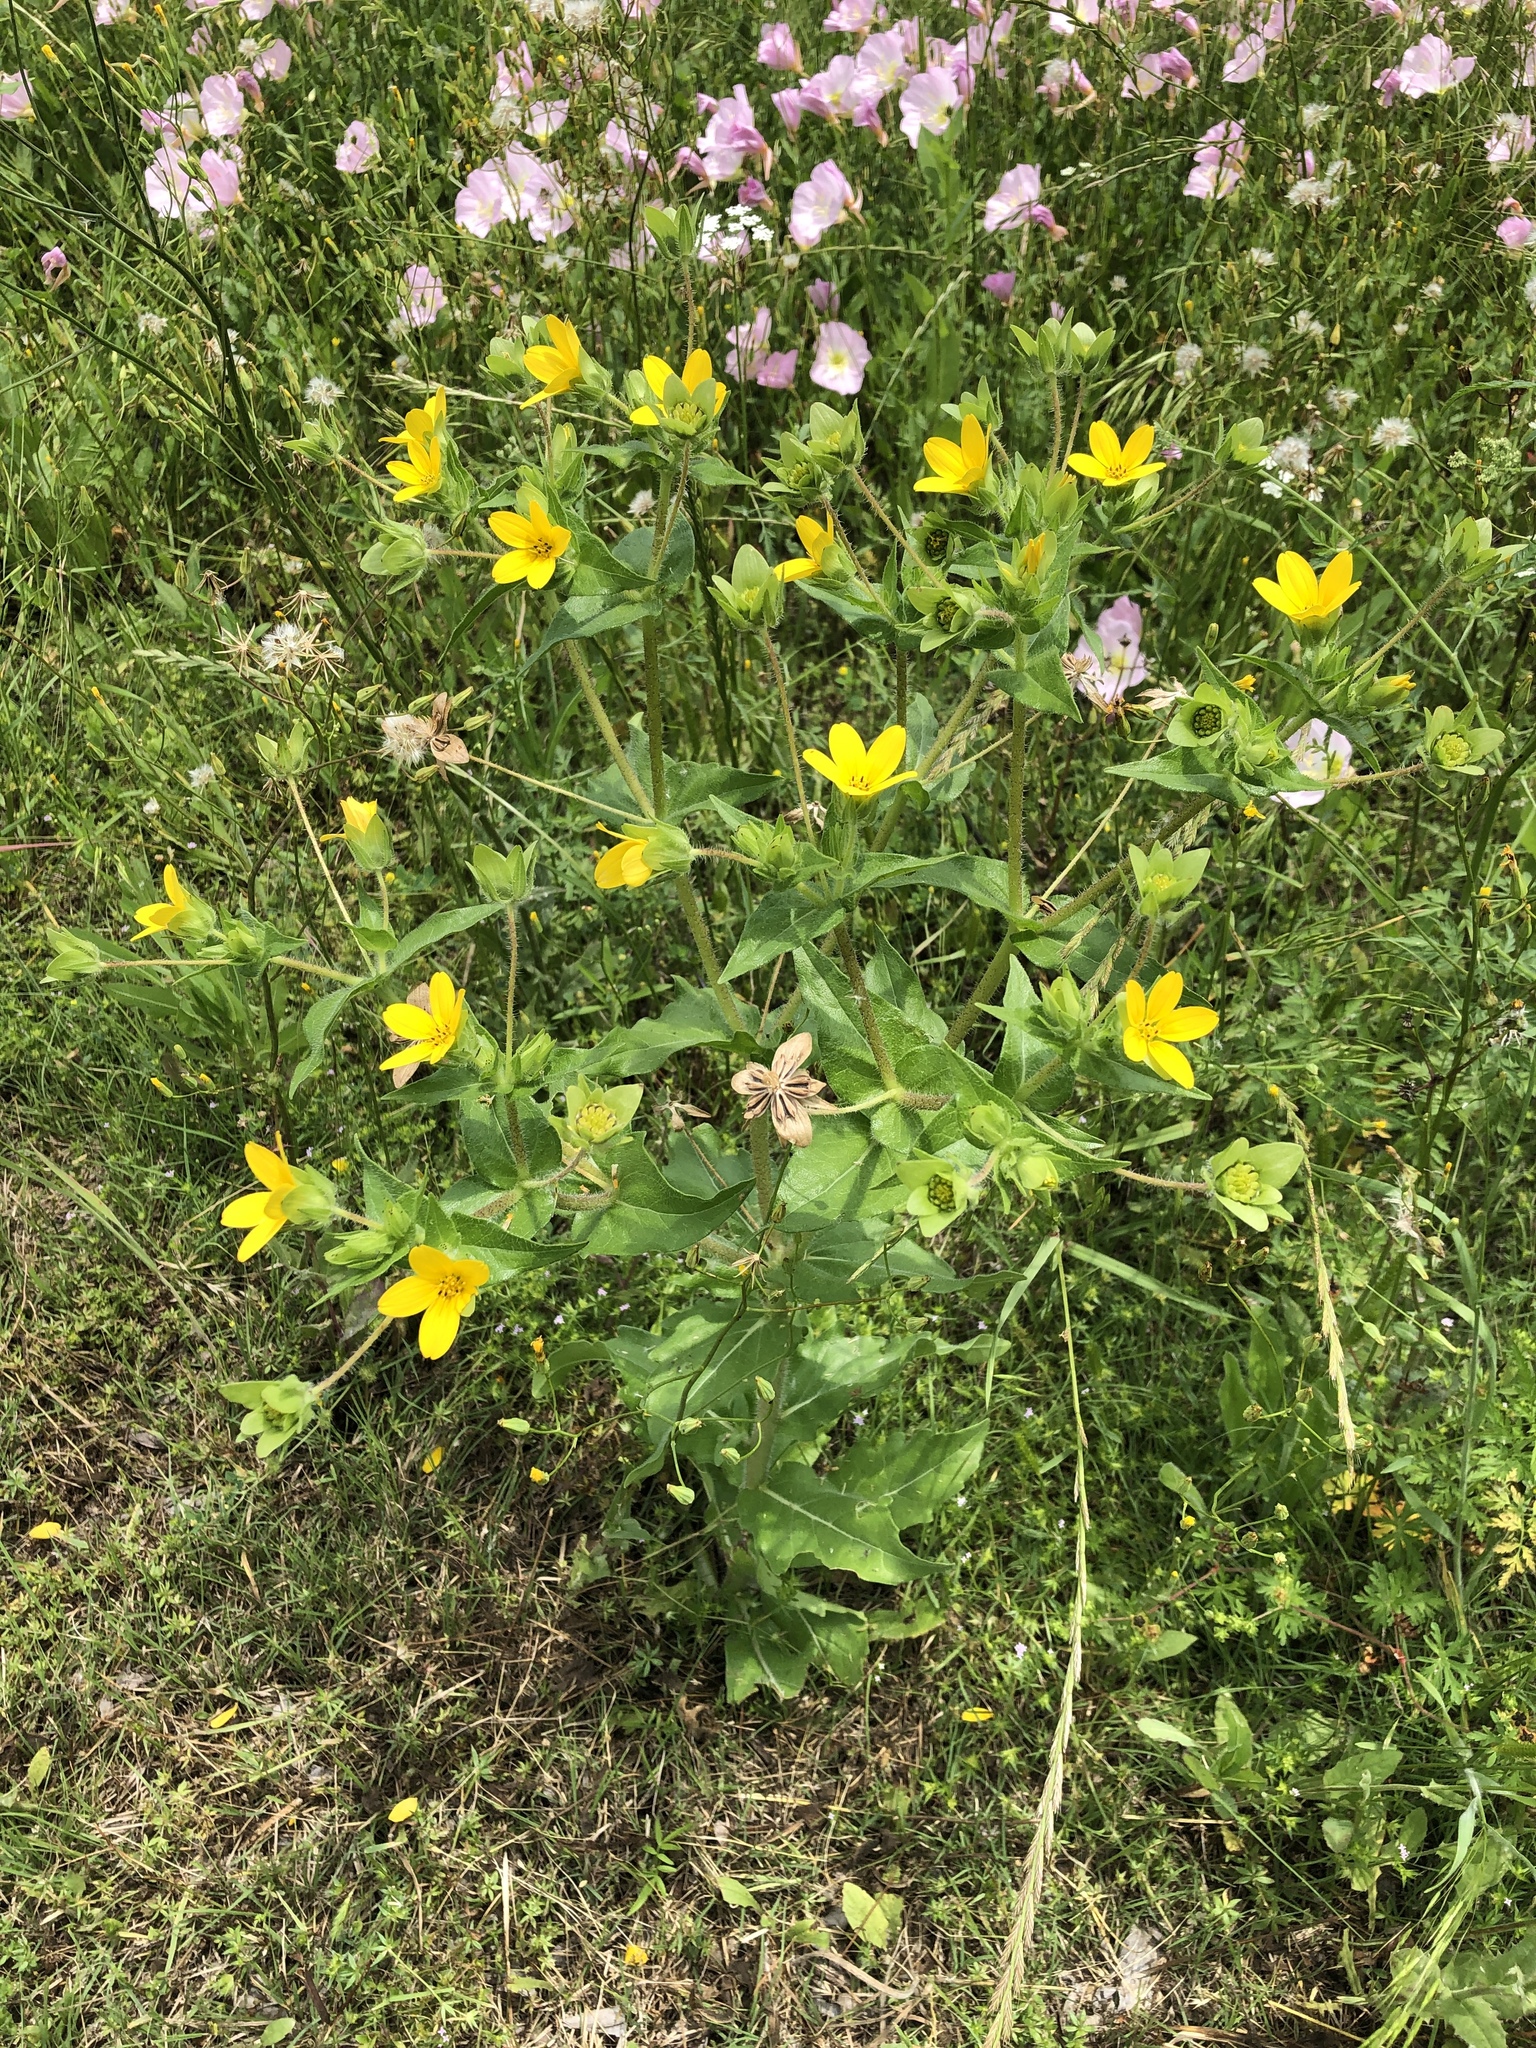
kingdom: Plantae
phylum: Tracheophyta
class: Magnoliopsida
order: Asterales
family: Asteraceae
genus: Lindheimera
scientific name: Lindheimera texana
